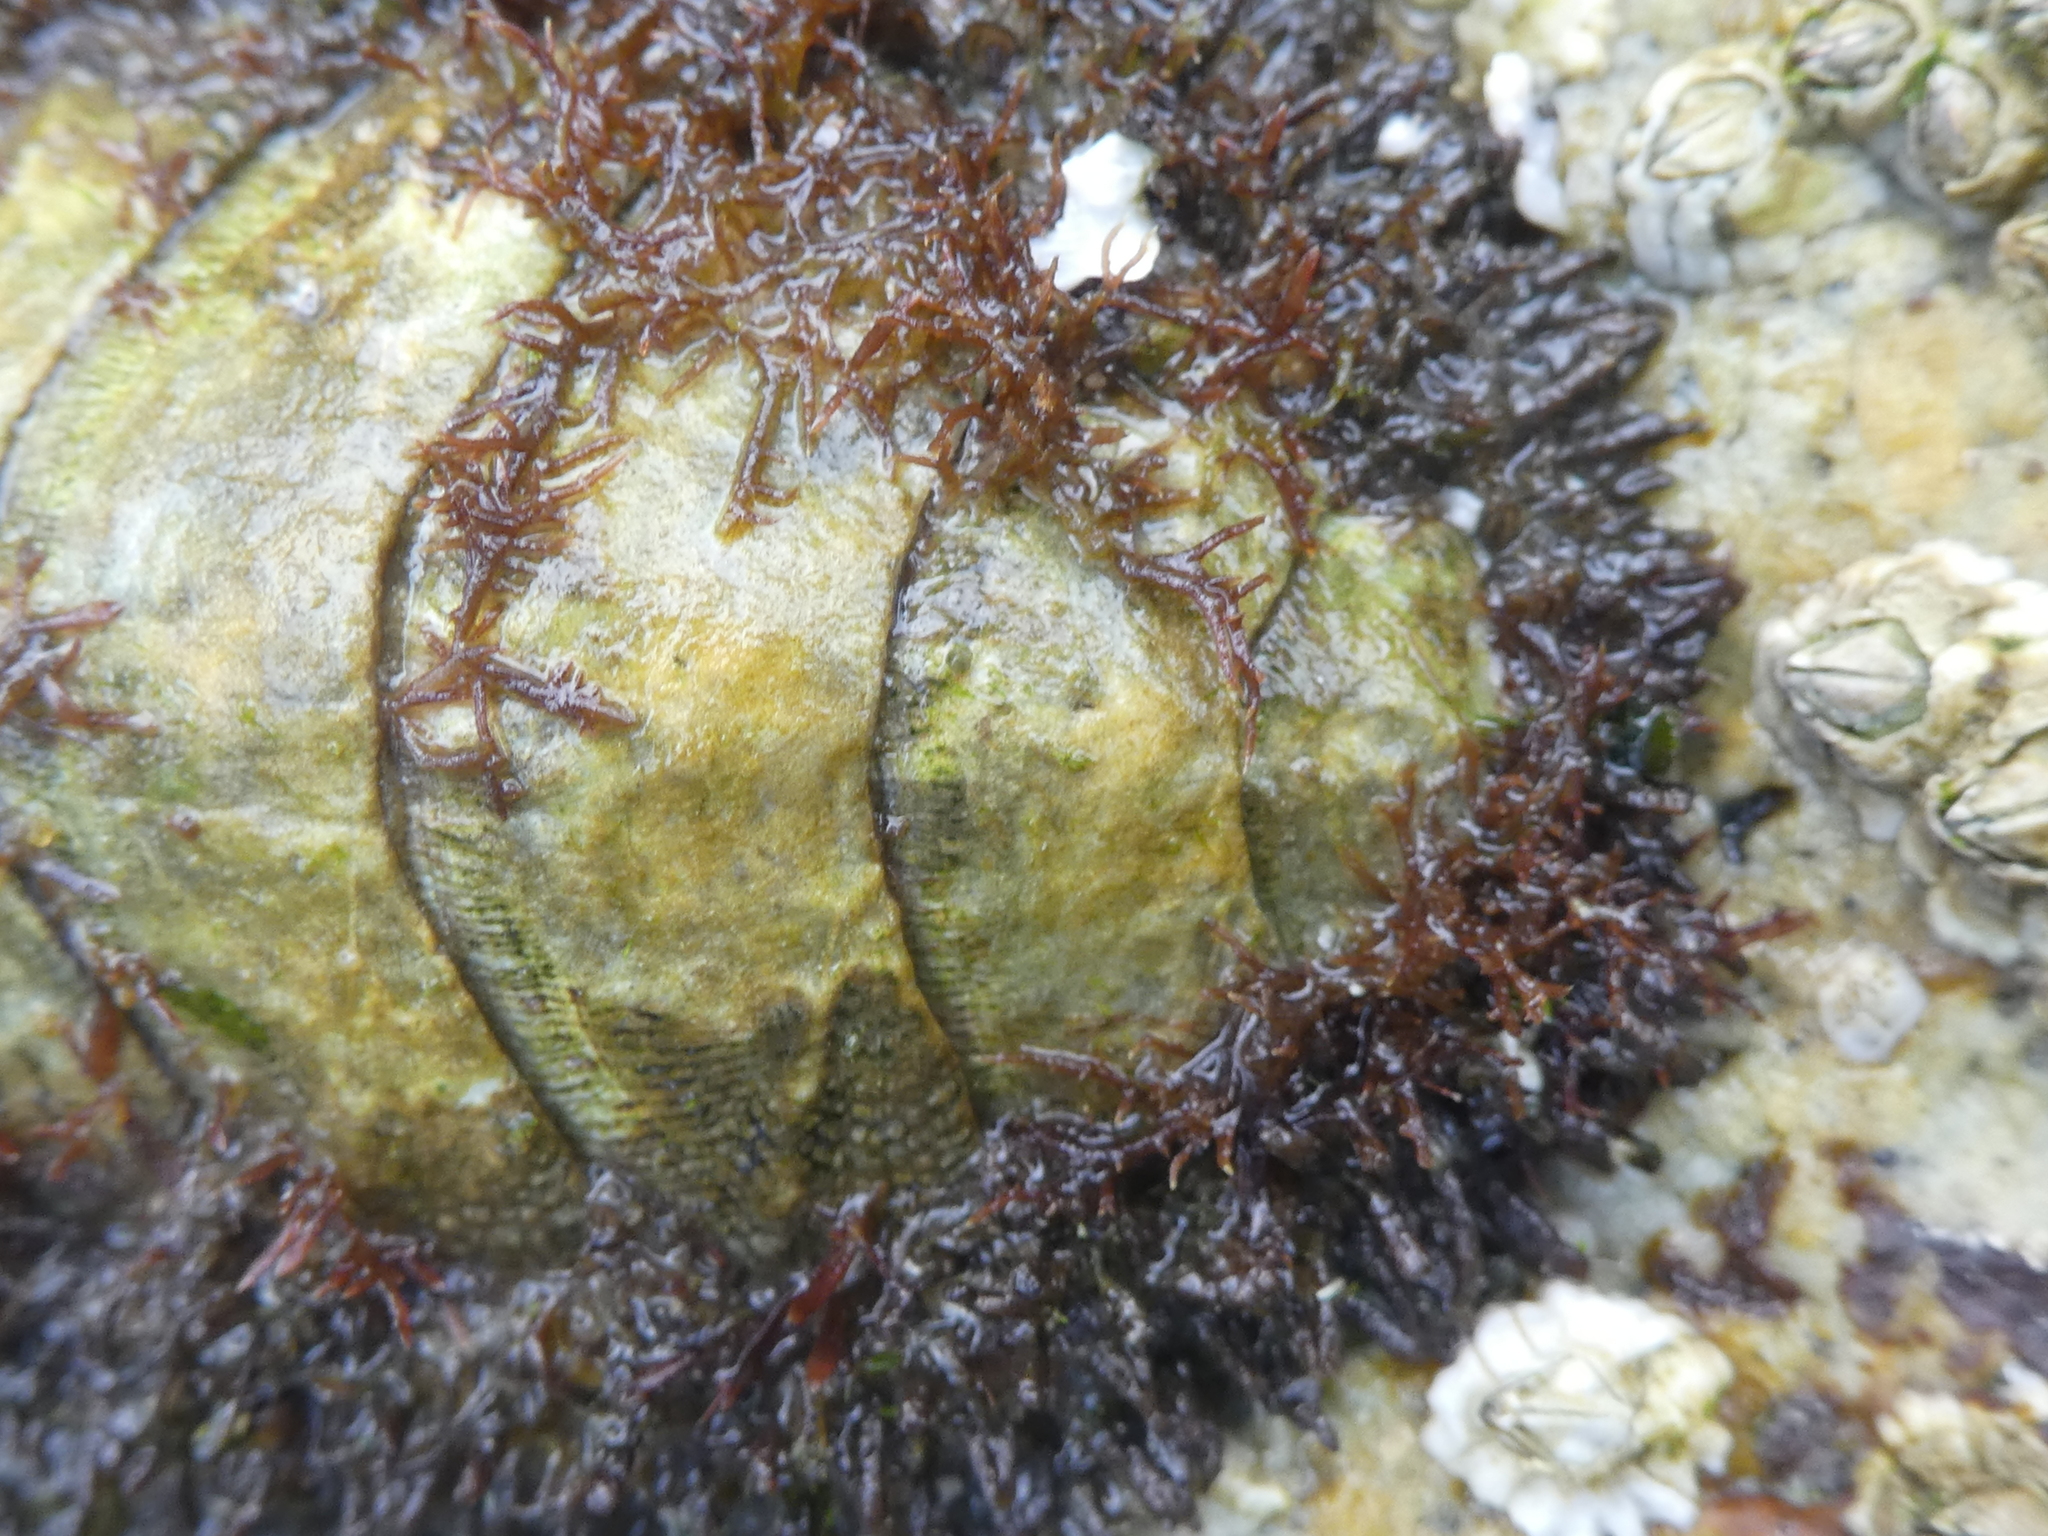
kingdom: Animalia
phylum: Mollusca
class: Polyplacophora
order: Chitonida
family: Mopaliidae
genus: Mopalia
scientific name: Mopalia muscosa
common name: Mossy chiton
